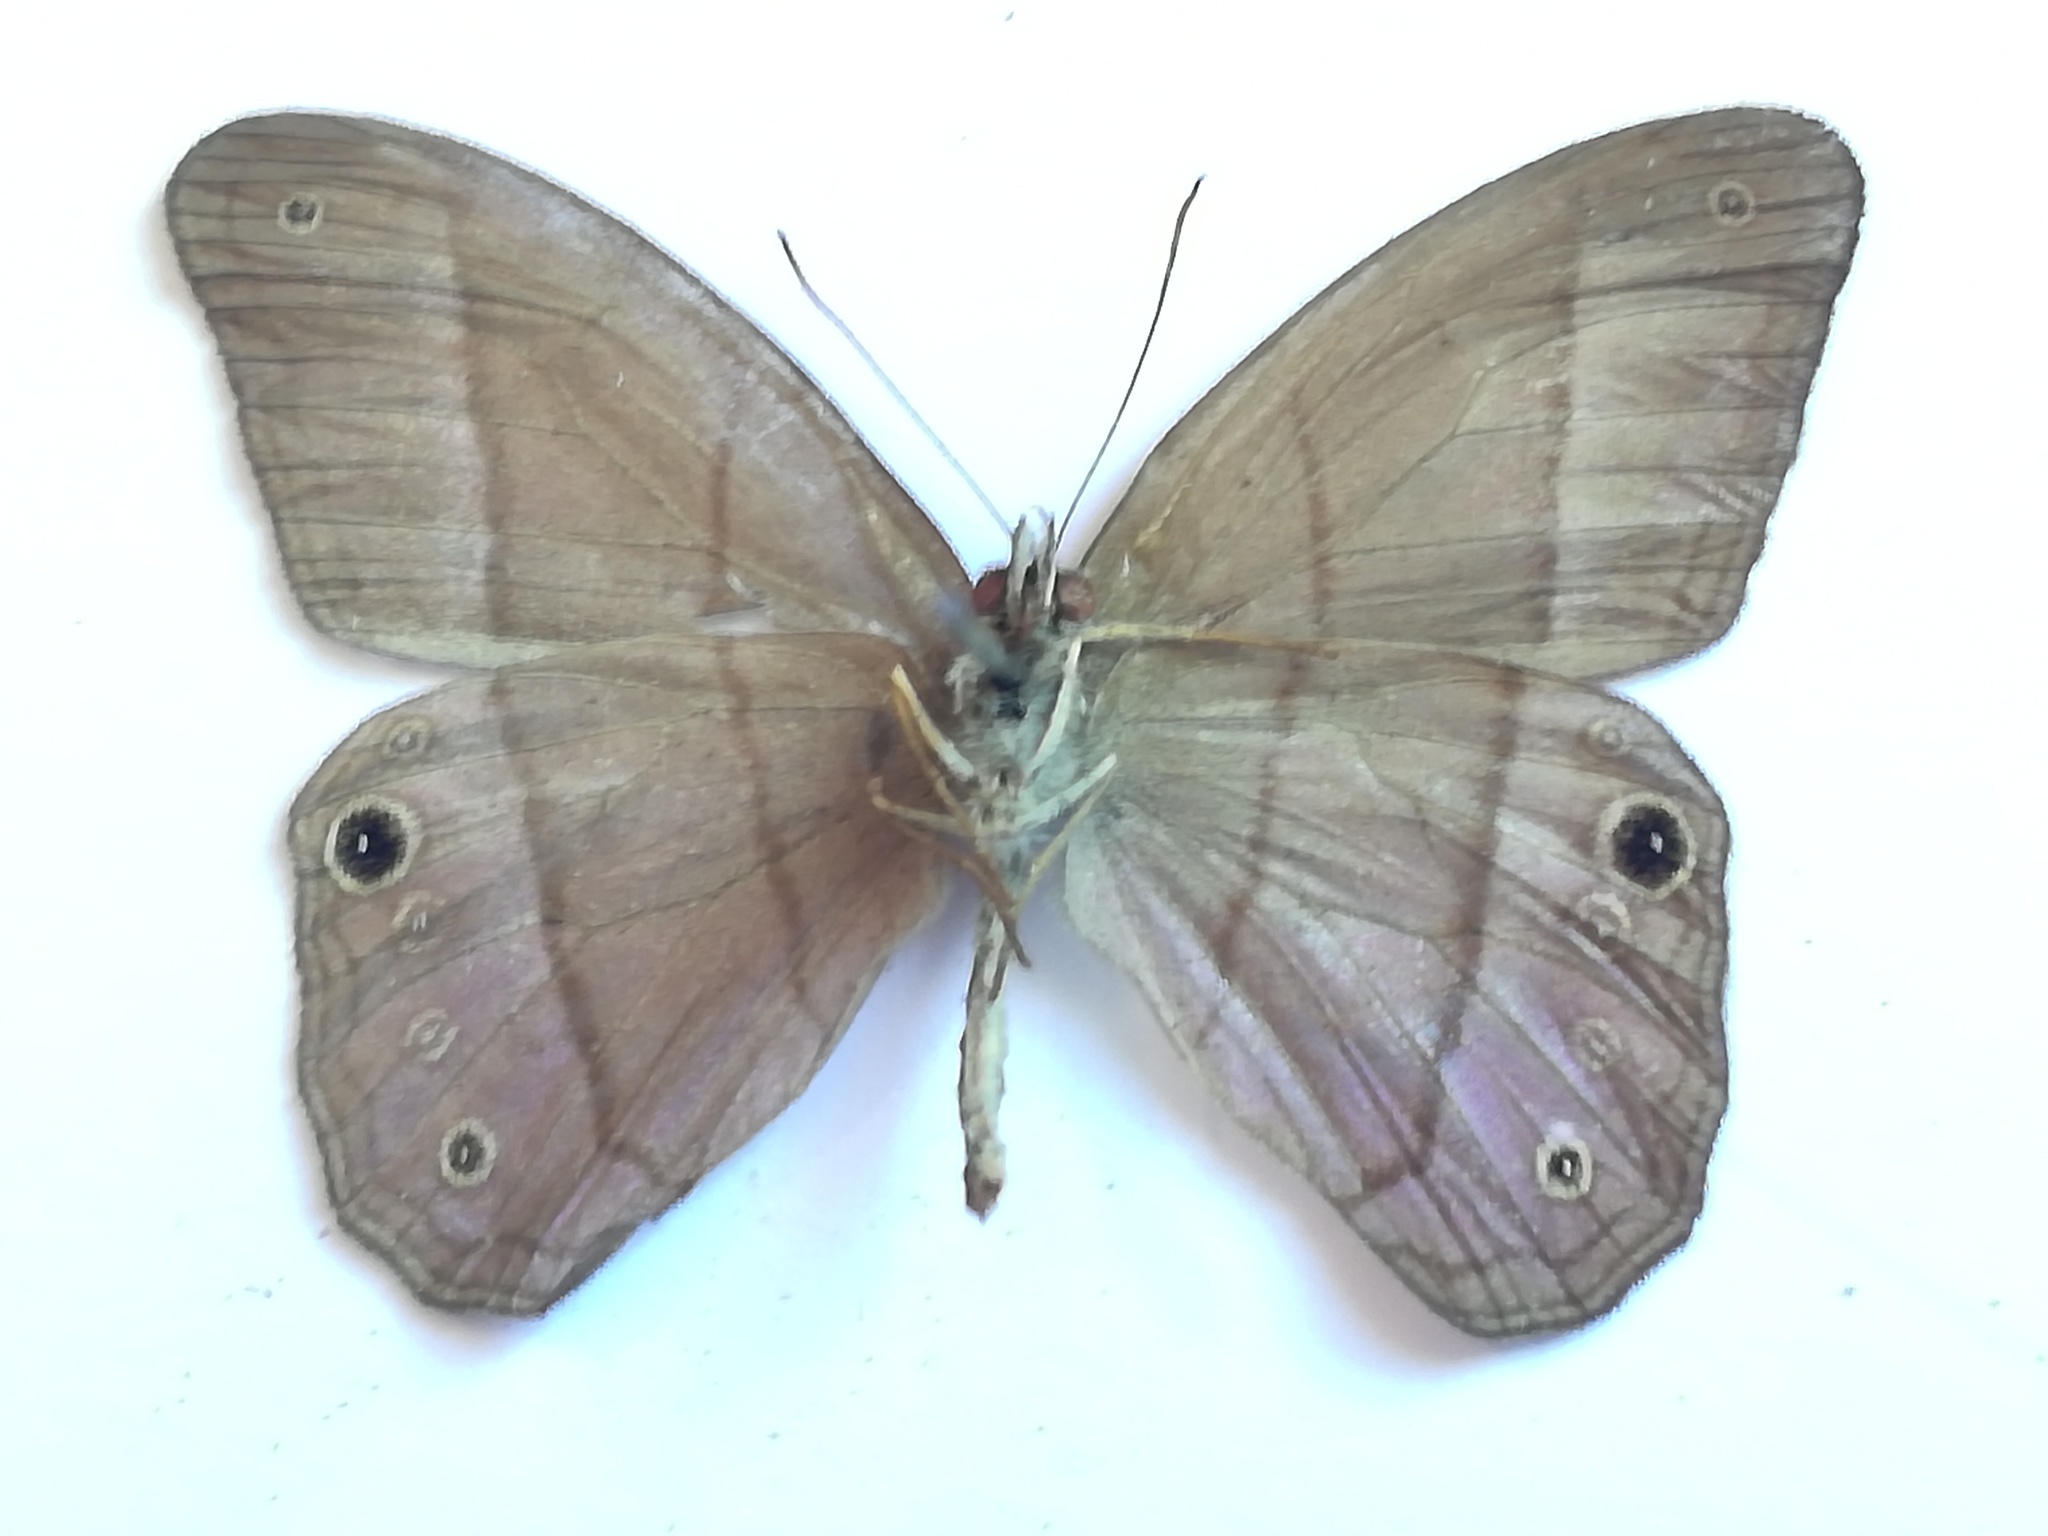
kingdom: Animalia
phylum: Arthropoda
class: Insecta
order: Lepidoptera
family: Nymphalidae
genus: Amiga
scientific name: Amiga sericeella
